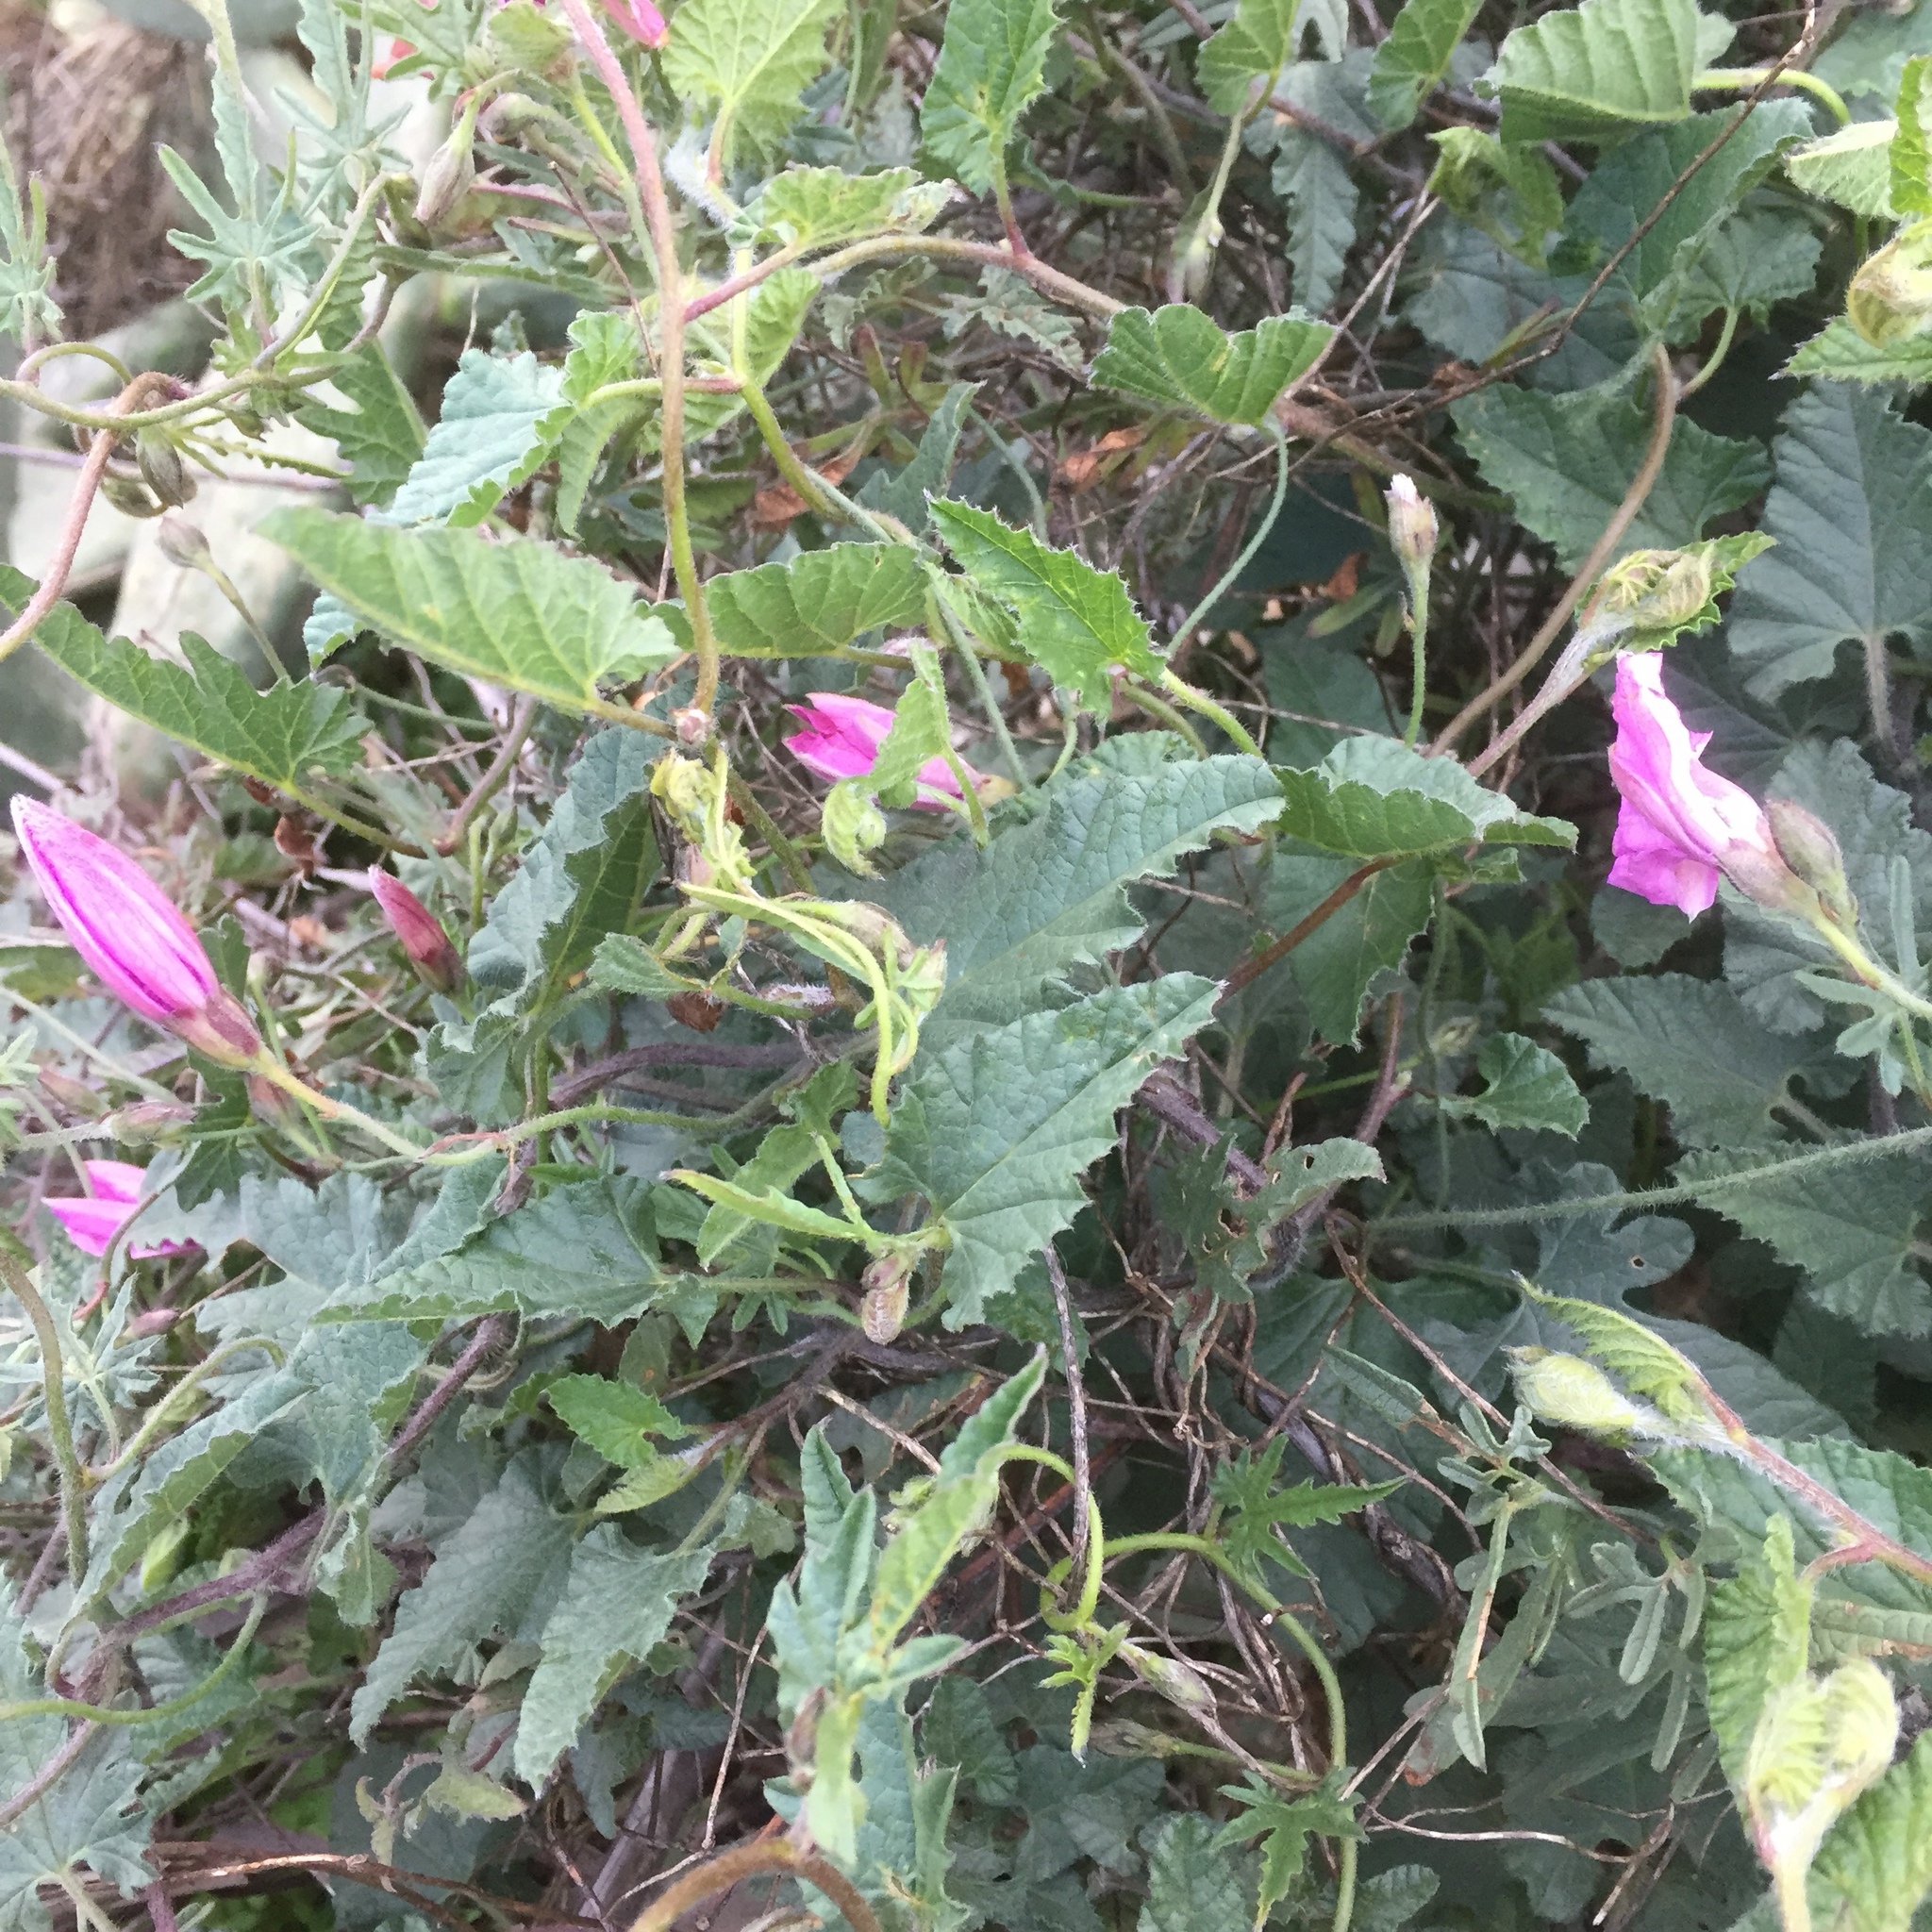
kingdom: Plantae
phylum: Tracheophyta
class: Magnoliopsida
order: Solanales
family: Convolvulaceae
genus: Convolvulus
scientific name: Convolvulus althaeoides
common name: Mallow bindweed
